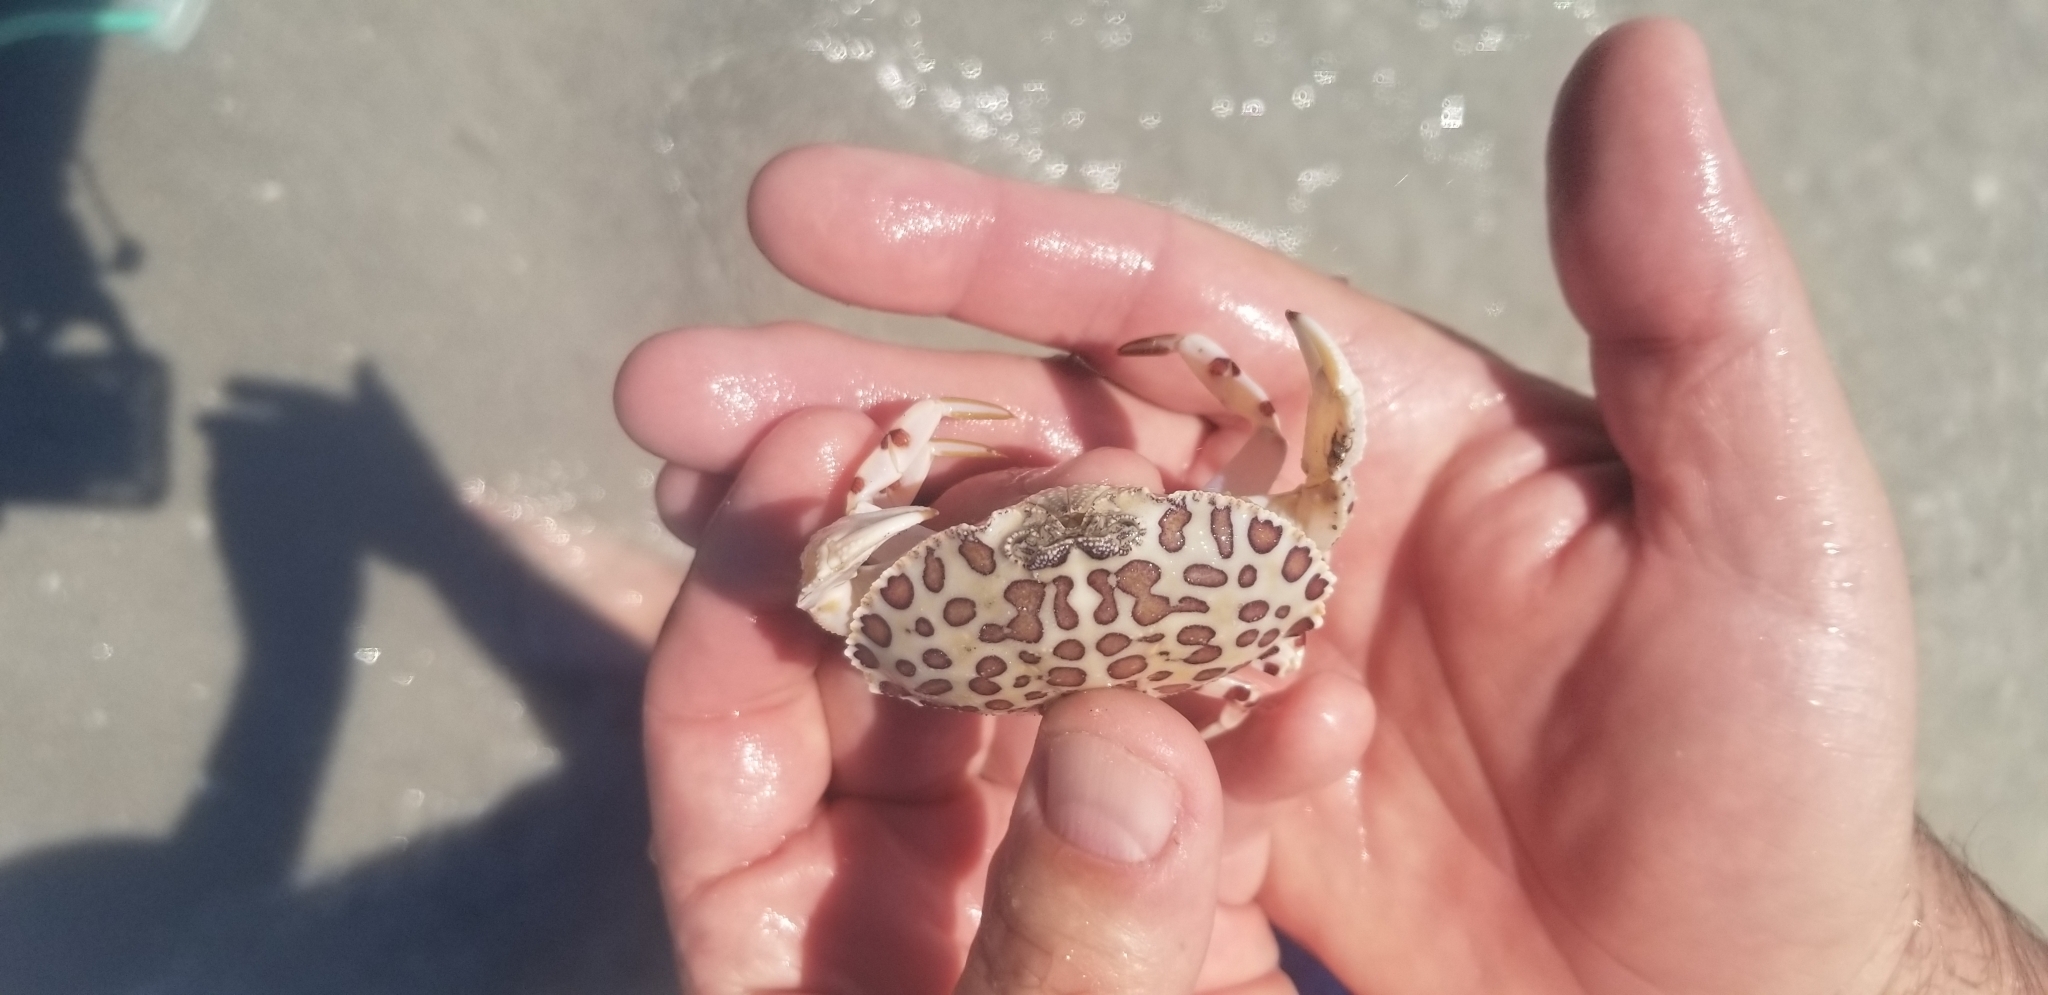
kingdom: Animalia
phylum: Arthropoda
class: Malacostraca
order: Decapoda
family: Aethridae
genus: Hepatus
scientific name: Hepatus epheliticus
